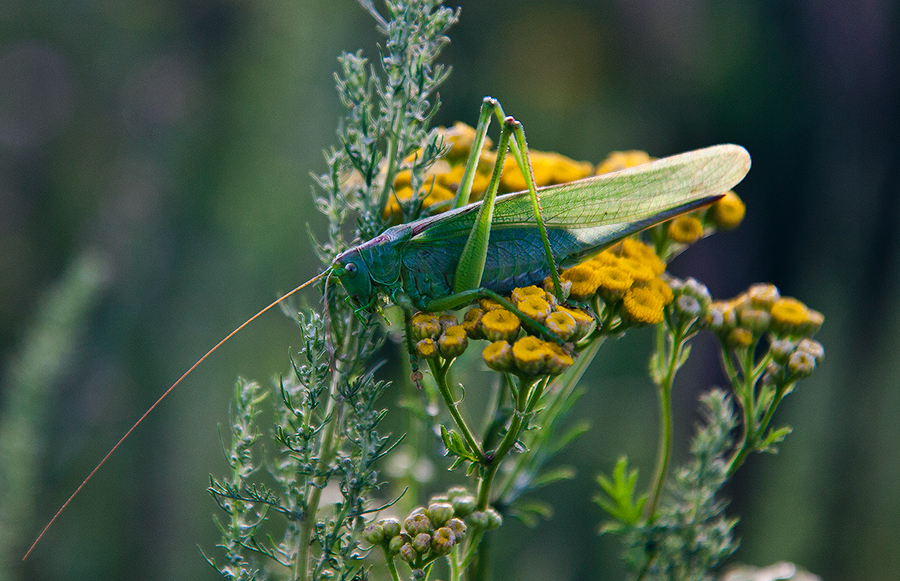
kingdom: Animalia
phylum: Arthropoda
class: Insecta
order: Orthoptera
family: Tettigoniidae
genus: Tettigonia
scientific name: Tettigonia viridissima
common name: Great green bush-cricket
